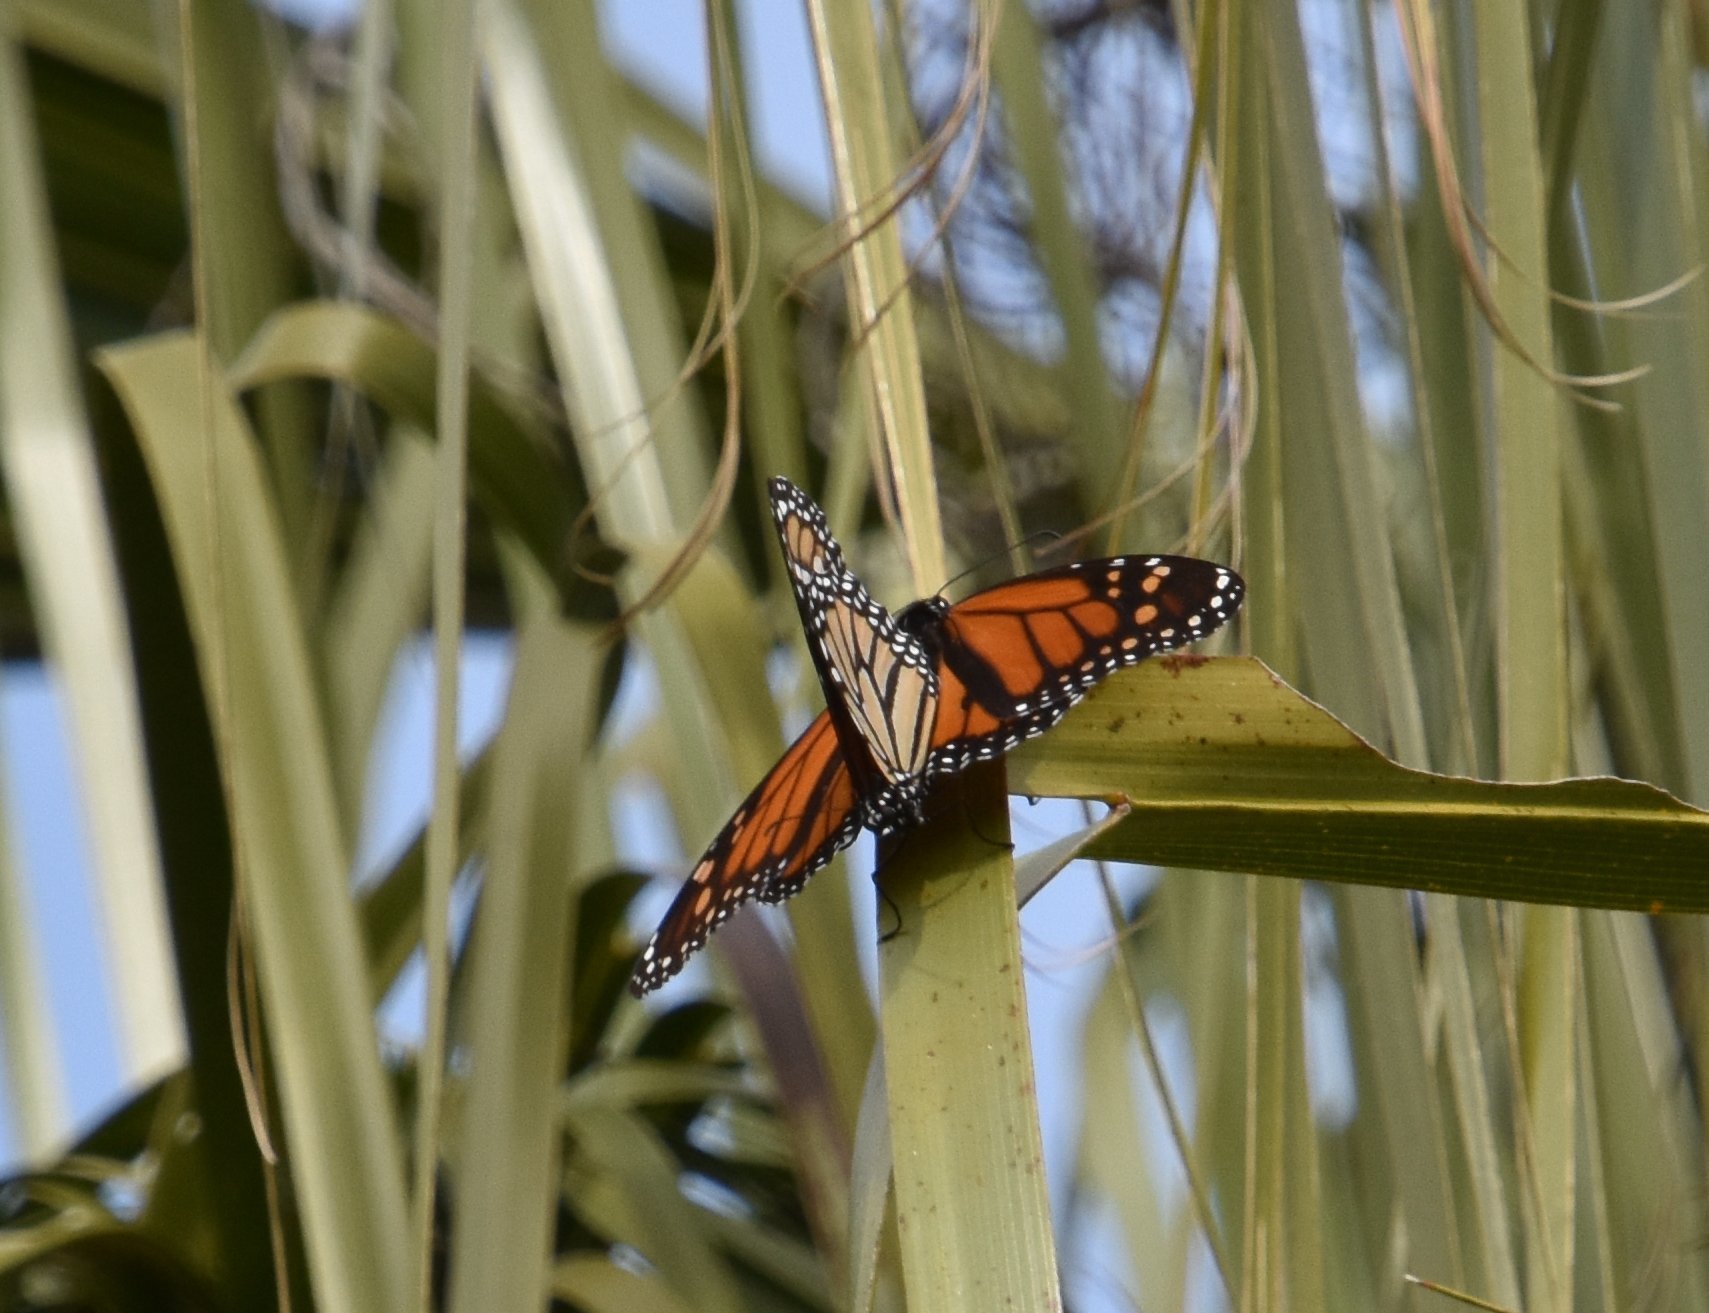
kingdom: Animalia
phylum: Arthropoda
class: Insecta
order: Lepidoptera
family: Nymphalidae
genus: Danaus
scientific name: Danaus plexippus
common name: Monarch
